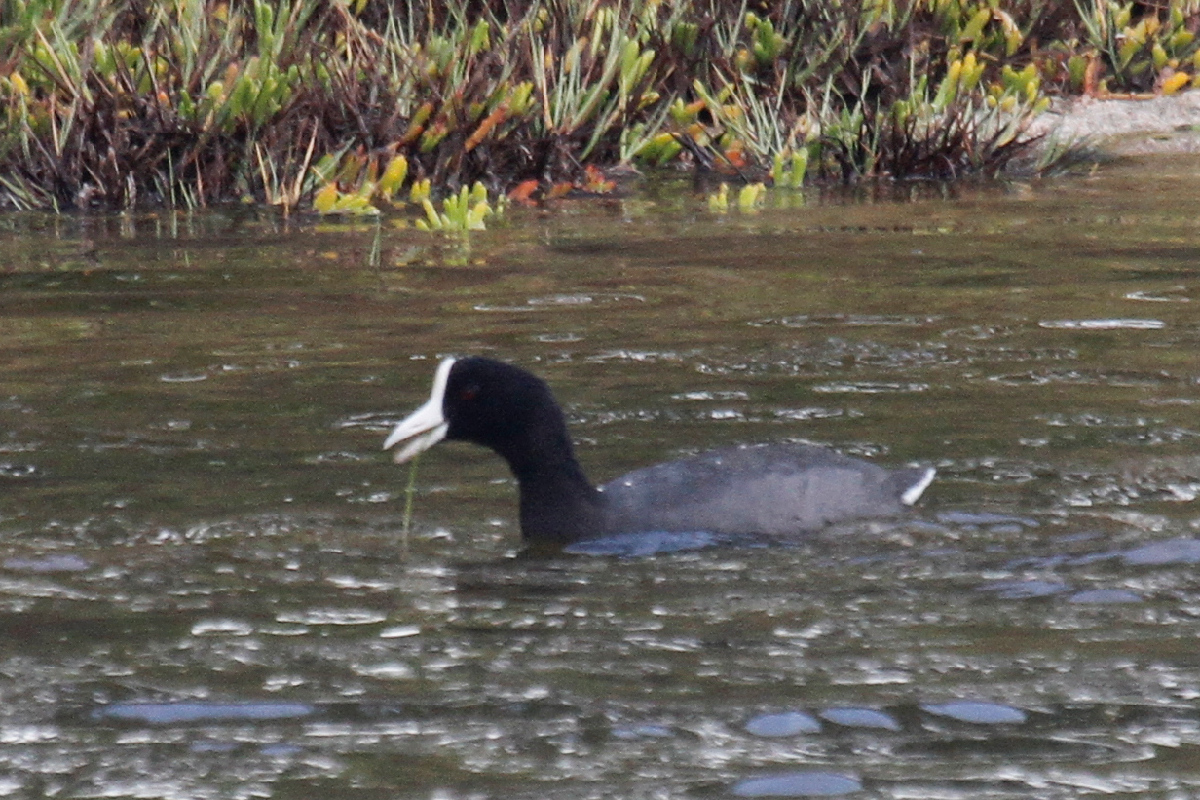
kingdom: Animalia
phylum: Chordata
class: Aves
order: Gruiformes
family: Rallidae
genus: Fulica
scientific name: Fulica alai
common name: Hawaiian coot
